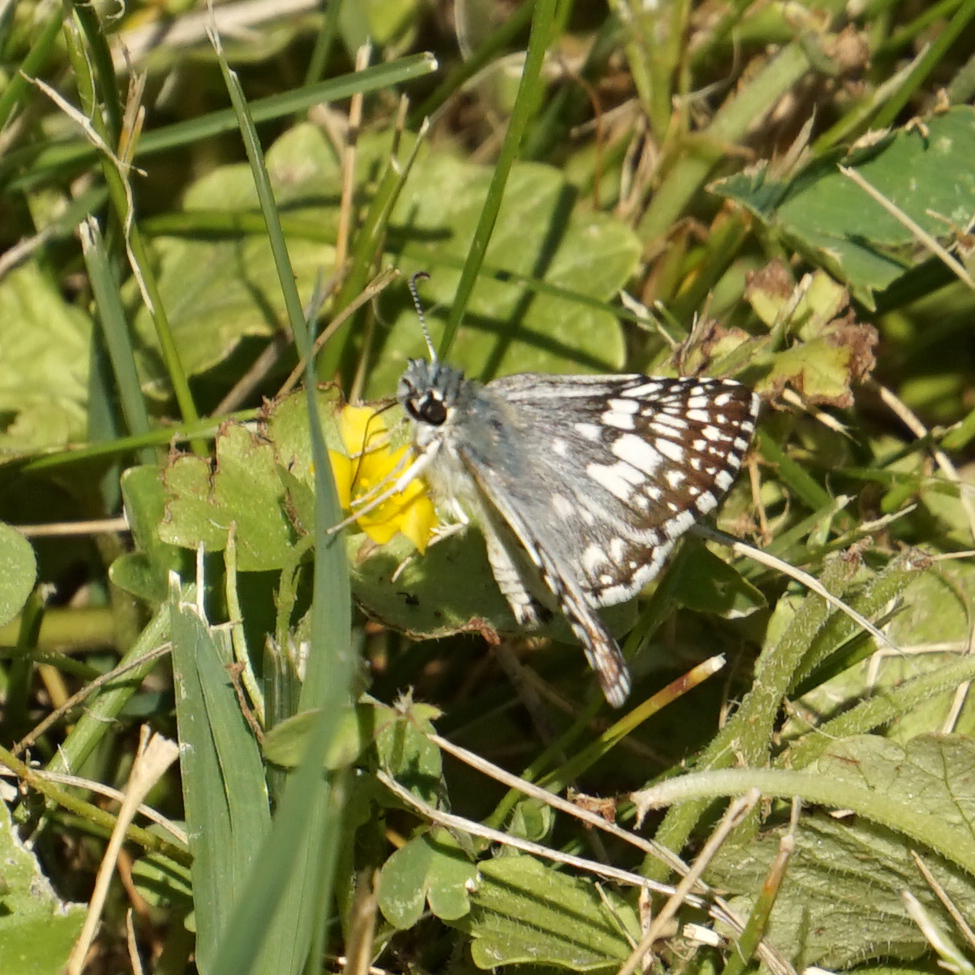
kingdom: Animalia
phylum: Arthropoda
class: Insecta
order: Lepidoptera
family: Hesperiidae
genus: Burnsius
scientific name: Burnsius communis
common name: Common checkered-skipper
